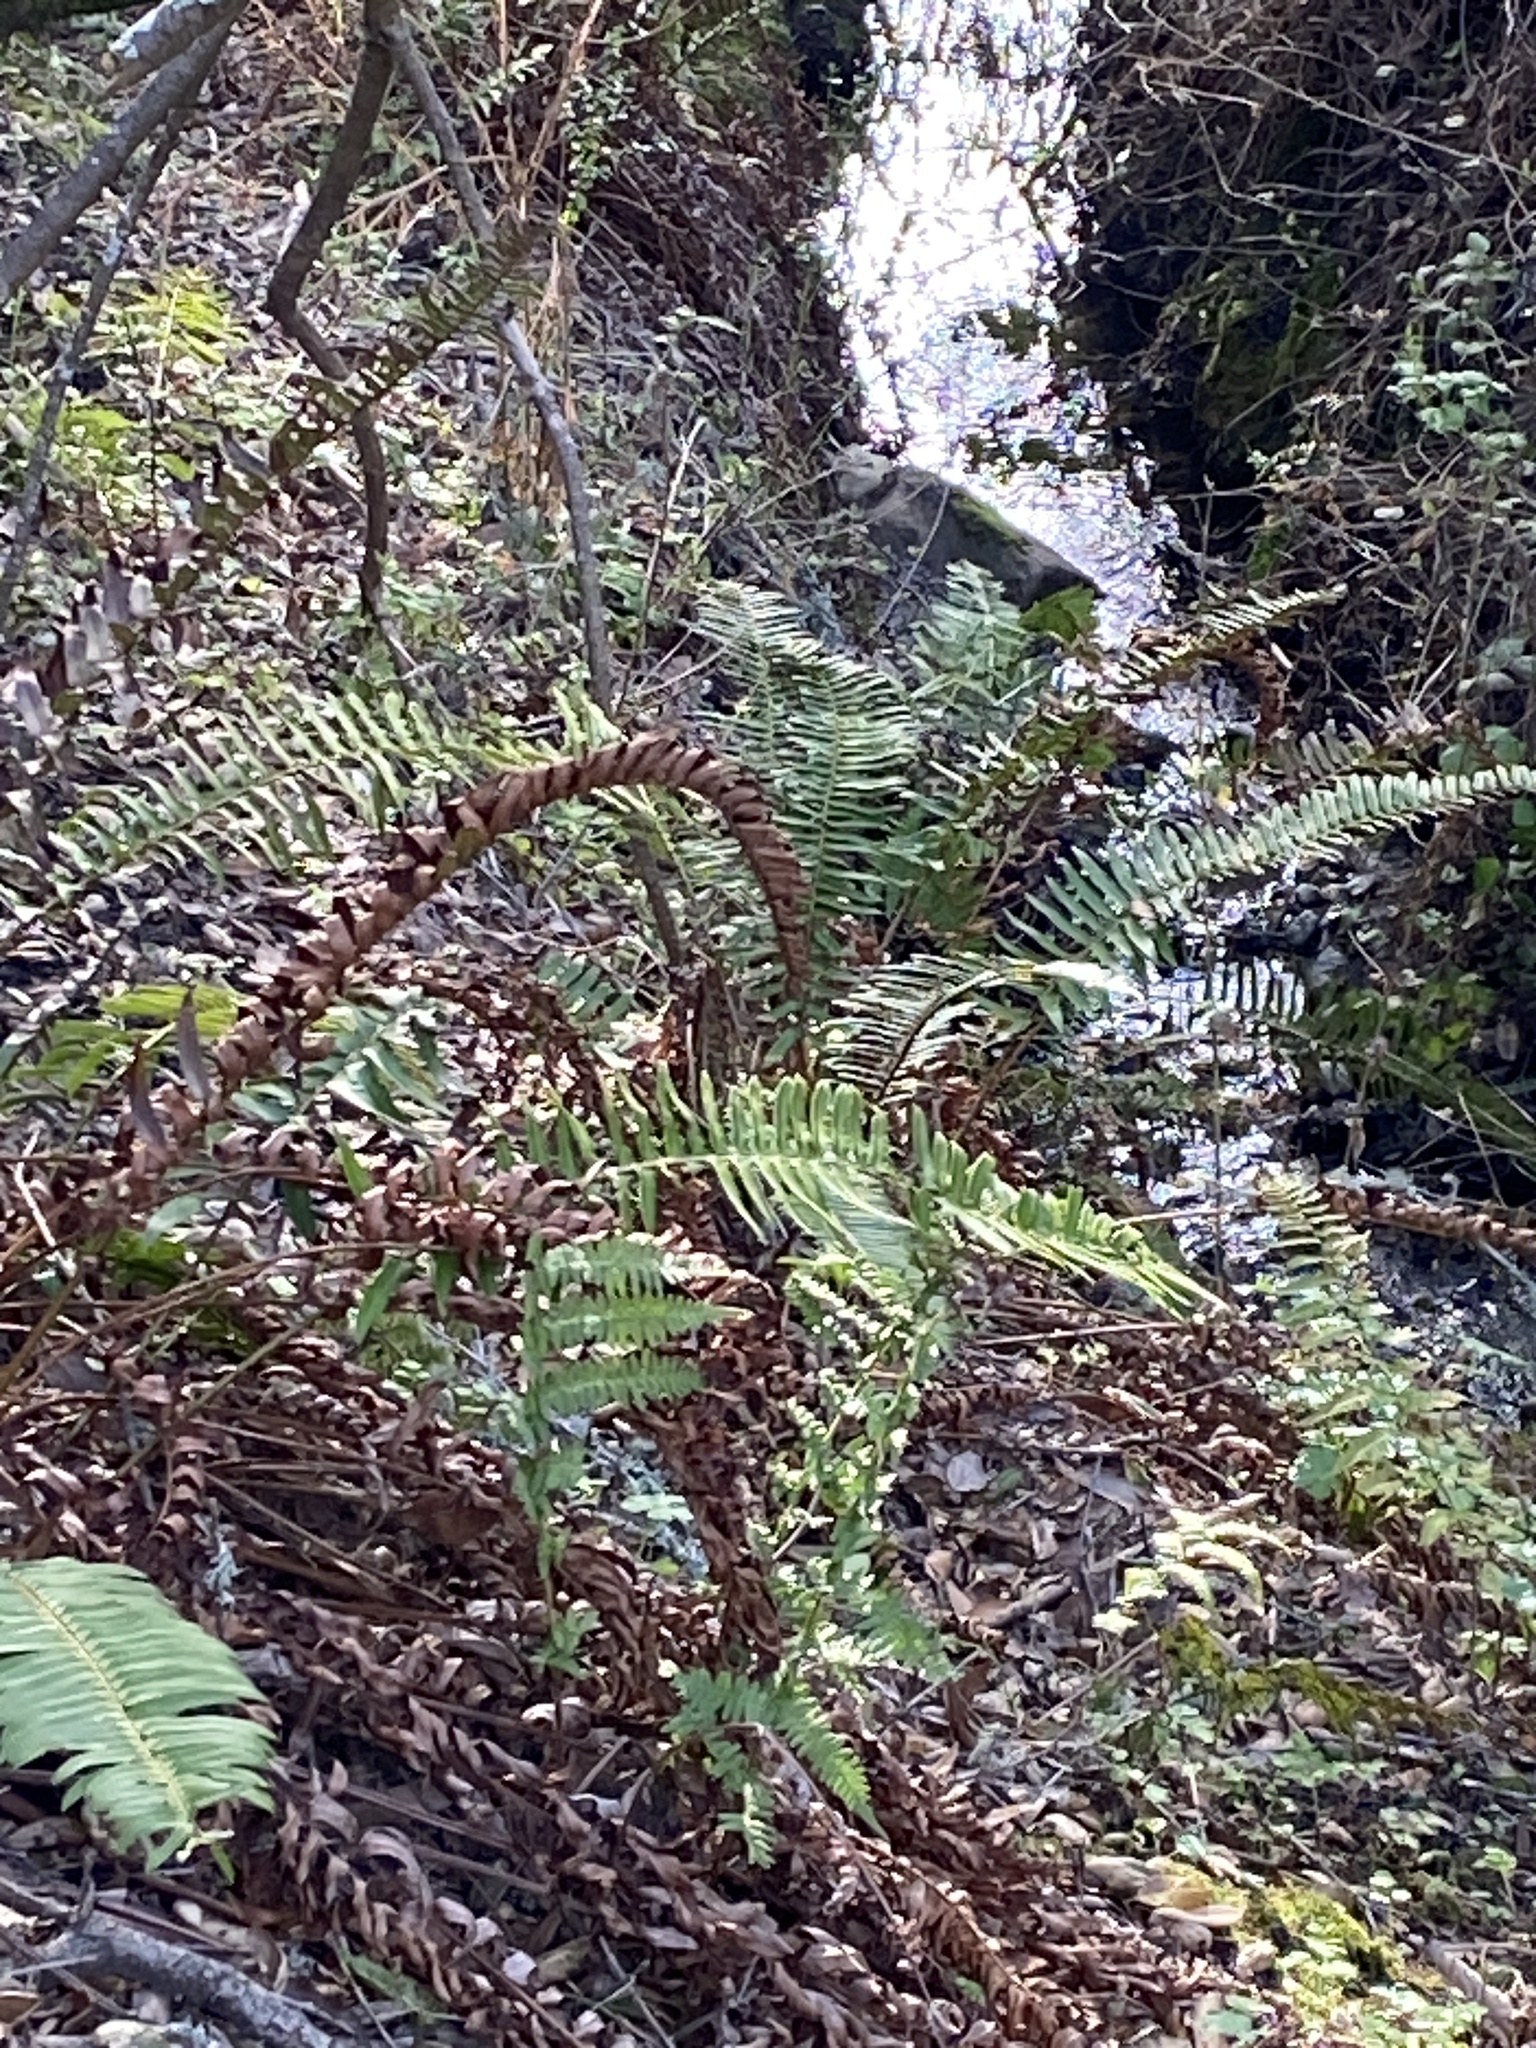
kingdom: Plantae
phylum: Tracheophyta
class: Polypodiopsida
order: Polypodiales
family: Dryopteridaceae
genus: Polystichum
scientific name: Polystichum munitum
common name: Western sword-fern
